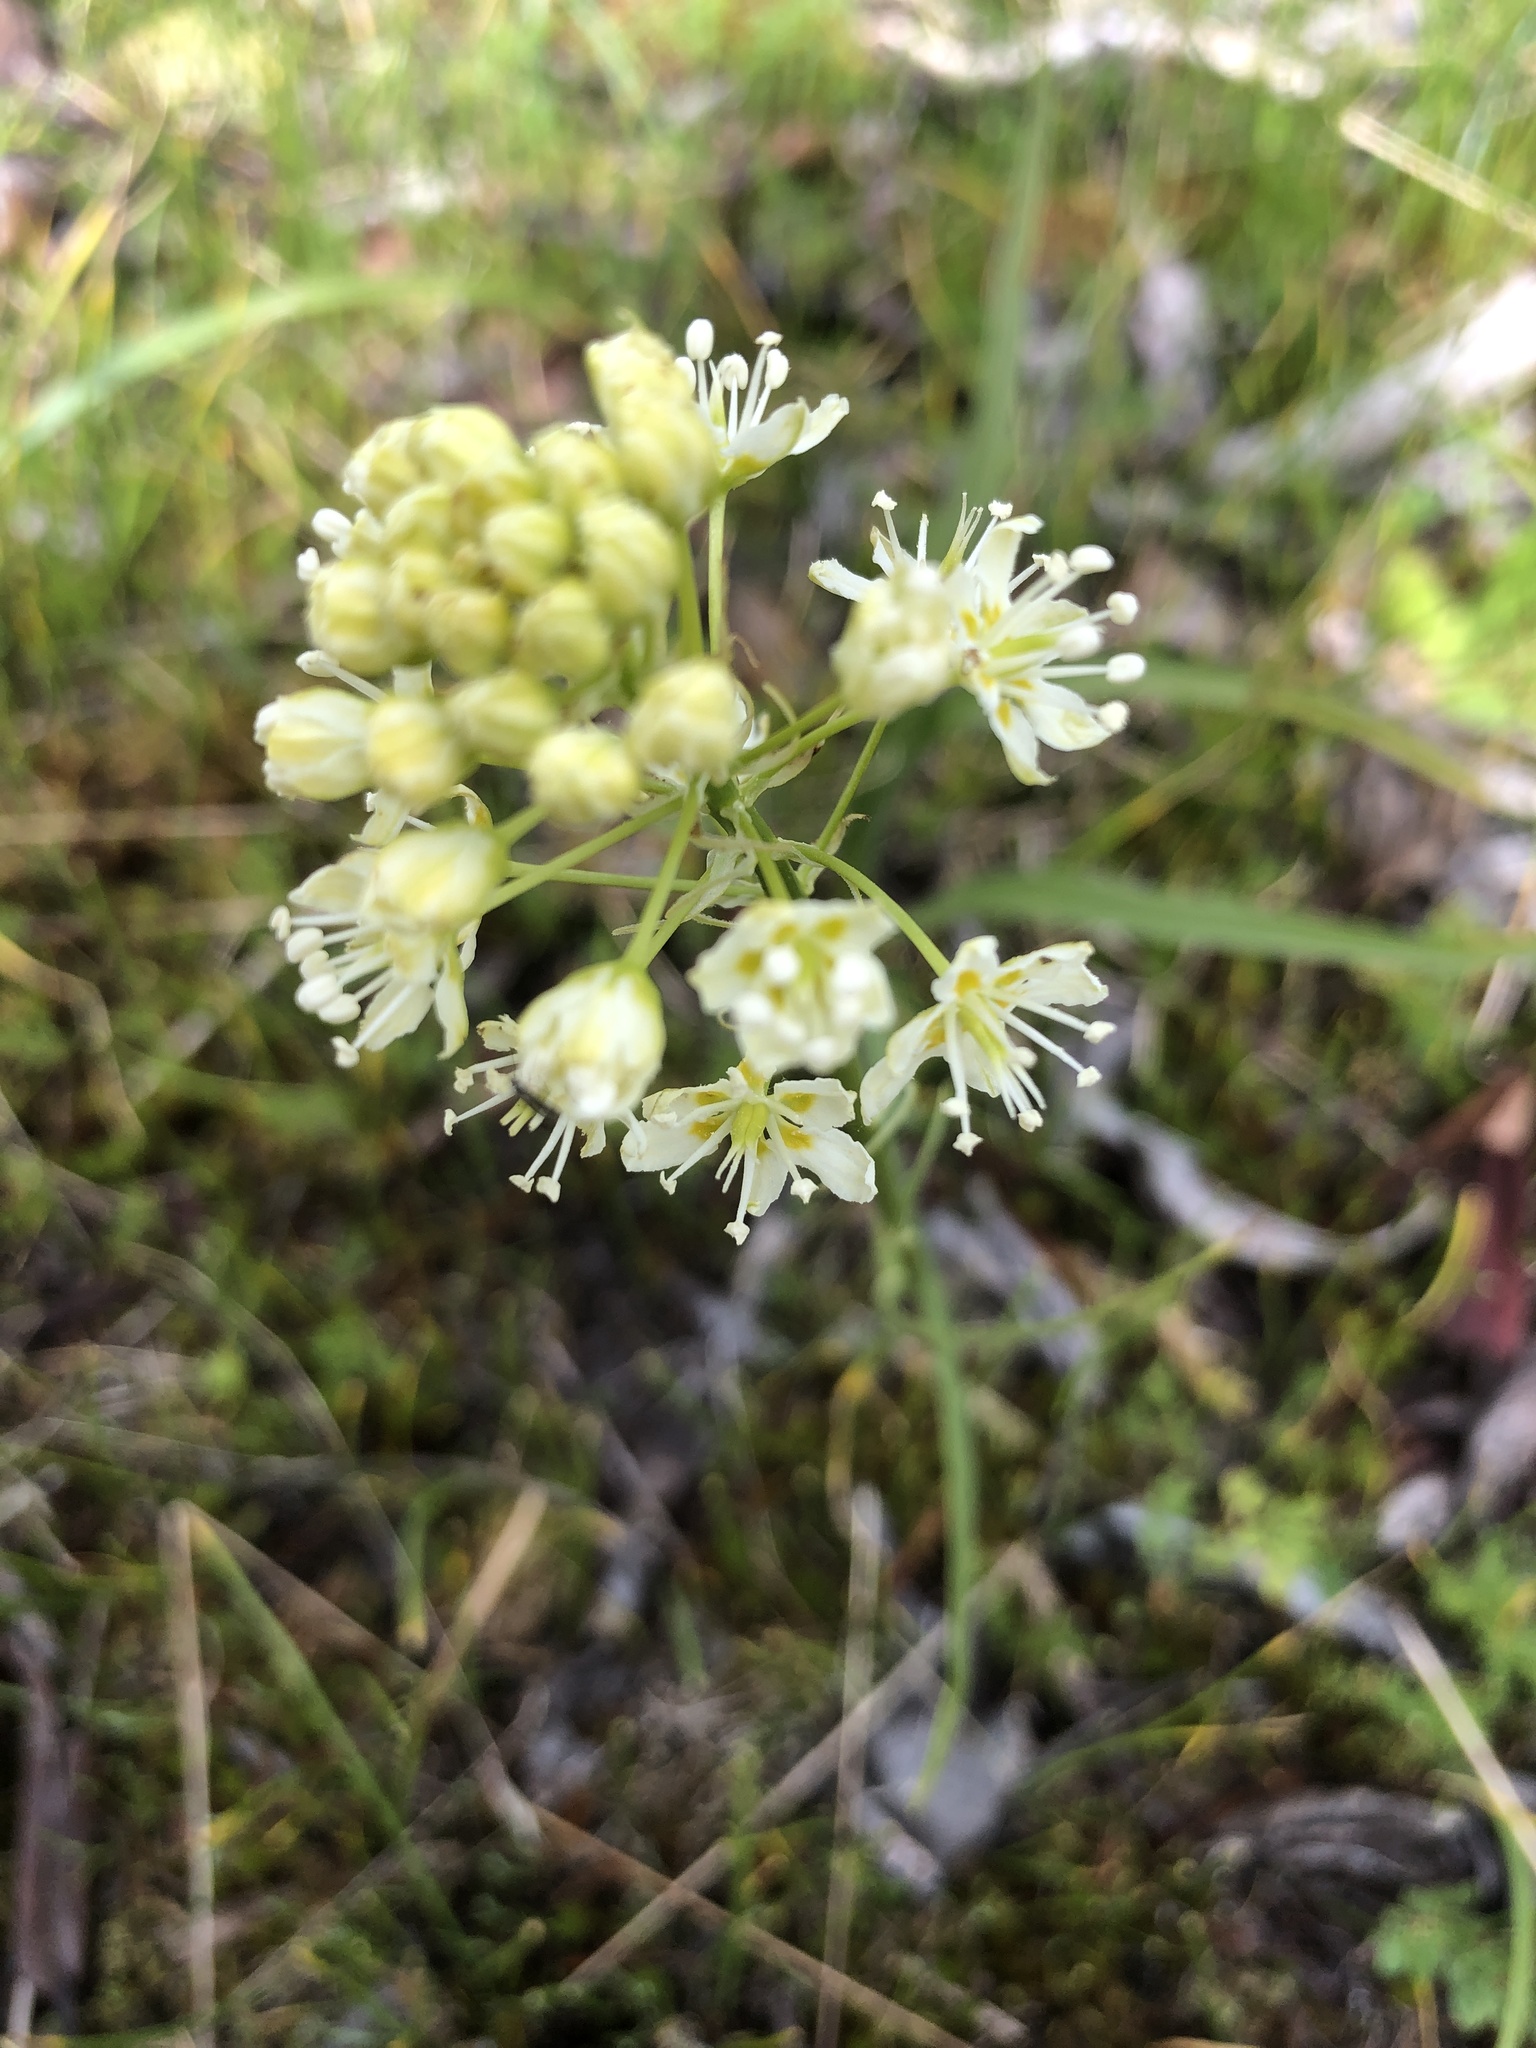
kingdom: Plantae
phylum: Tracheophyta
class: Liliopsida
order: Liliales
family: Melanthiaceae
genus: Toxicoscordion
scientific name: Toxicoscordion venenosum
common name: Meadow death camas
